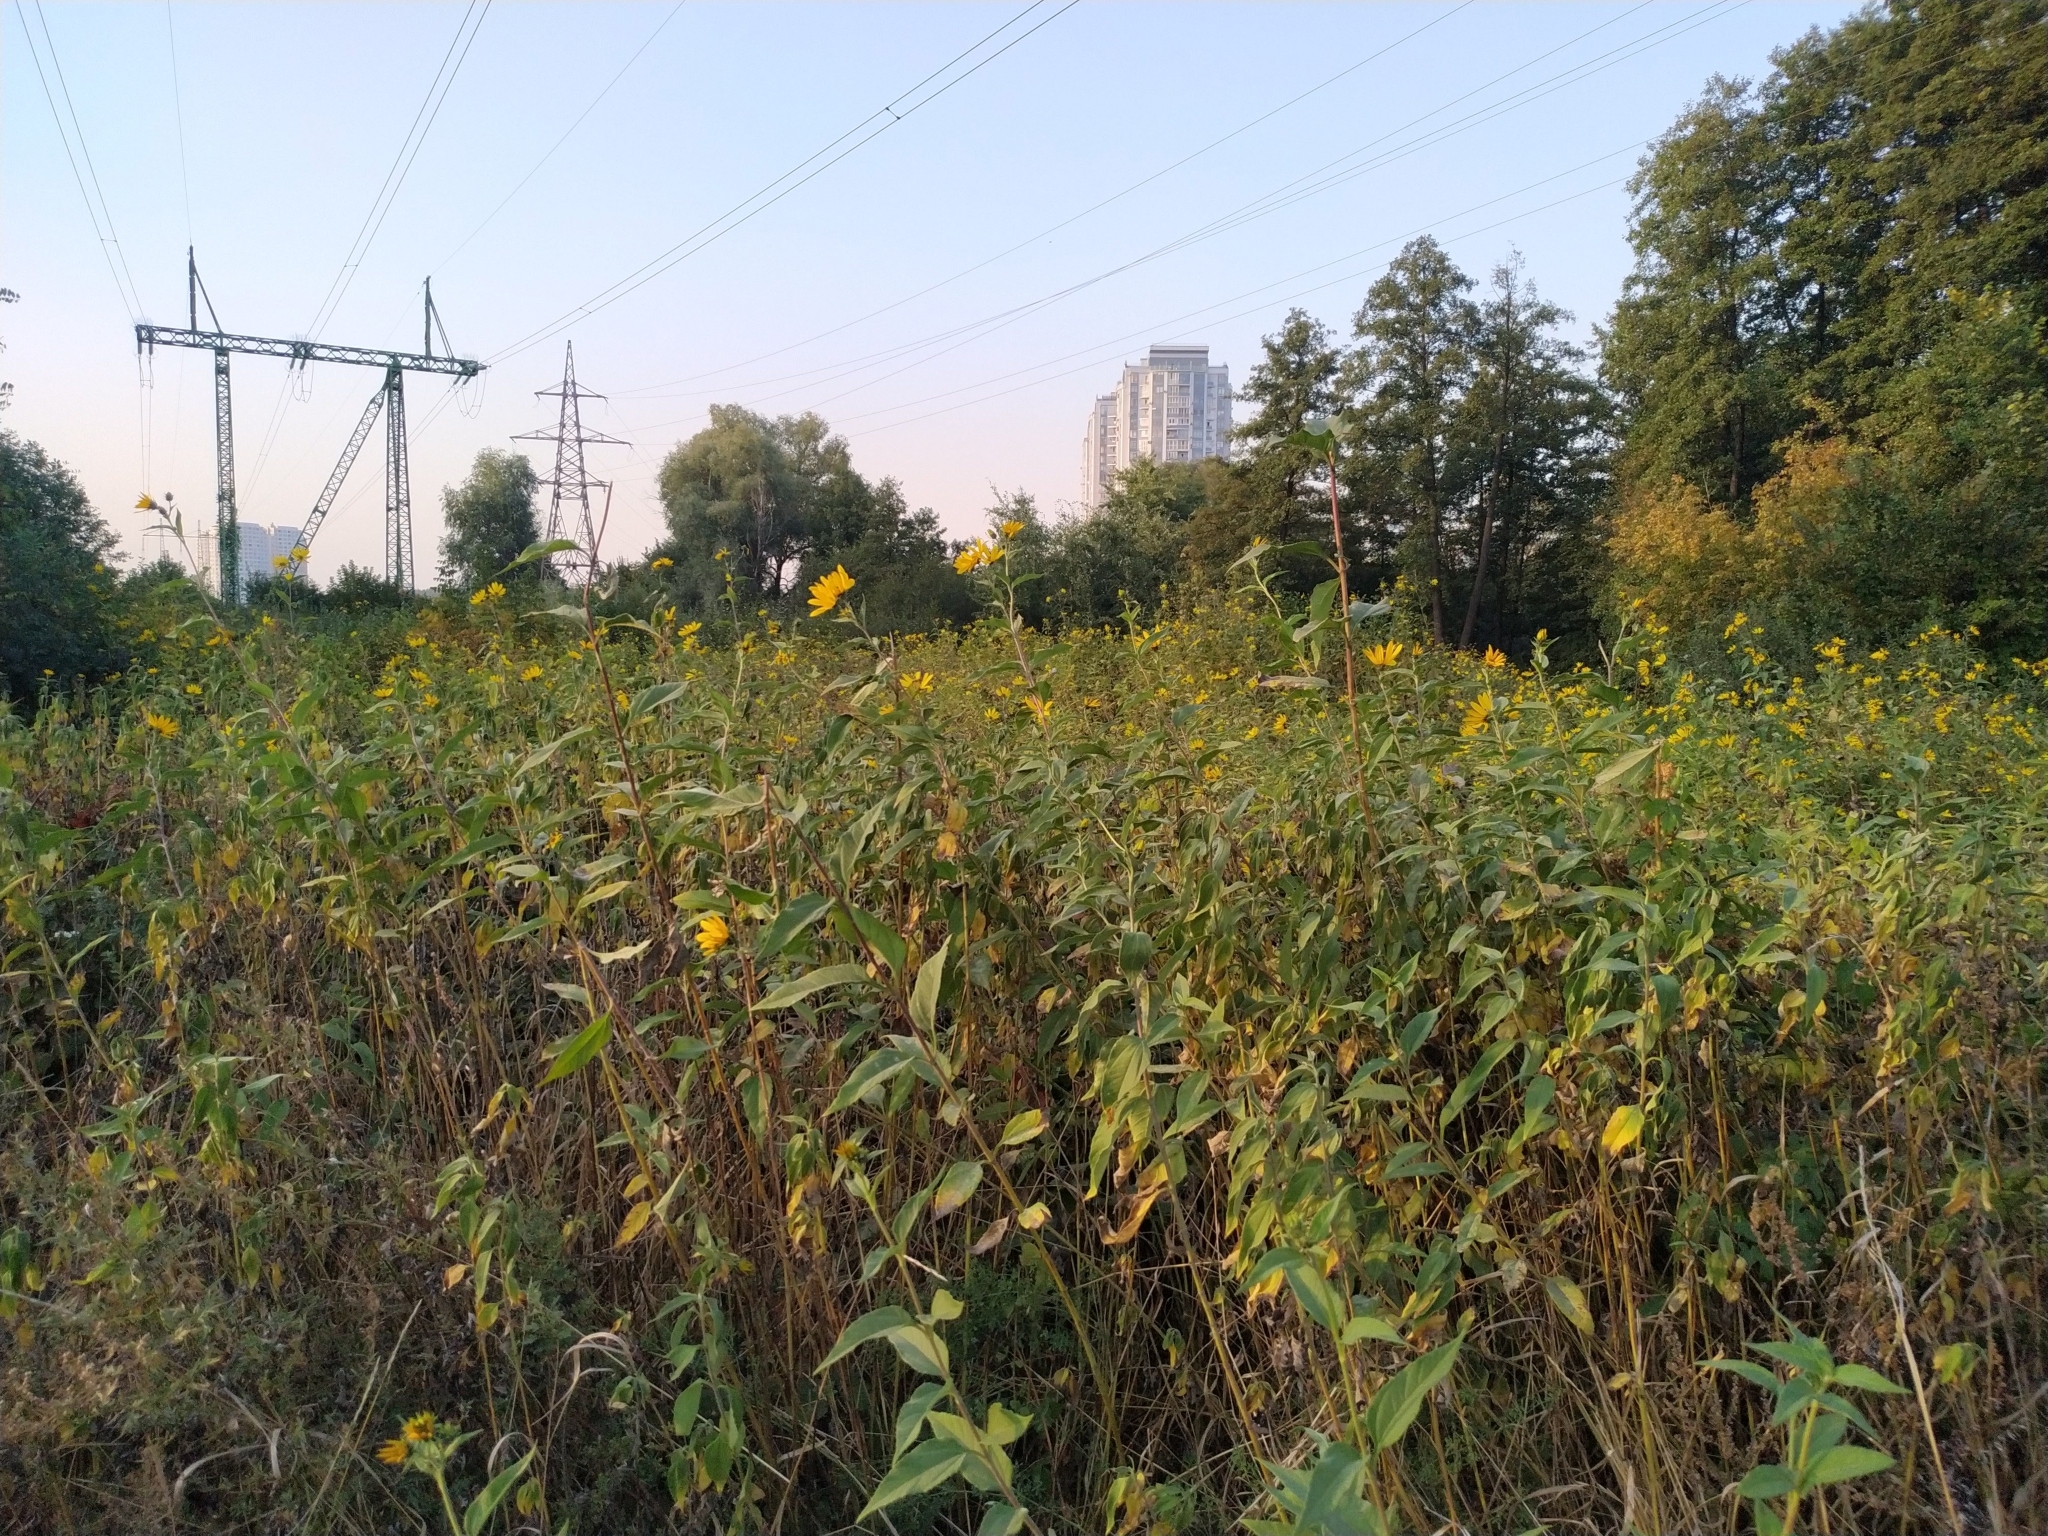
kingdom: Plantae
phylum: Tracheophyta
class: Magnoliopsida
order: Asterales
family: Asteraceae
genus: Helianthus
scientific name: Helianthus tuberosus
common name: Jerusalem artichoke
